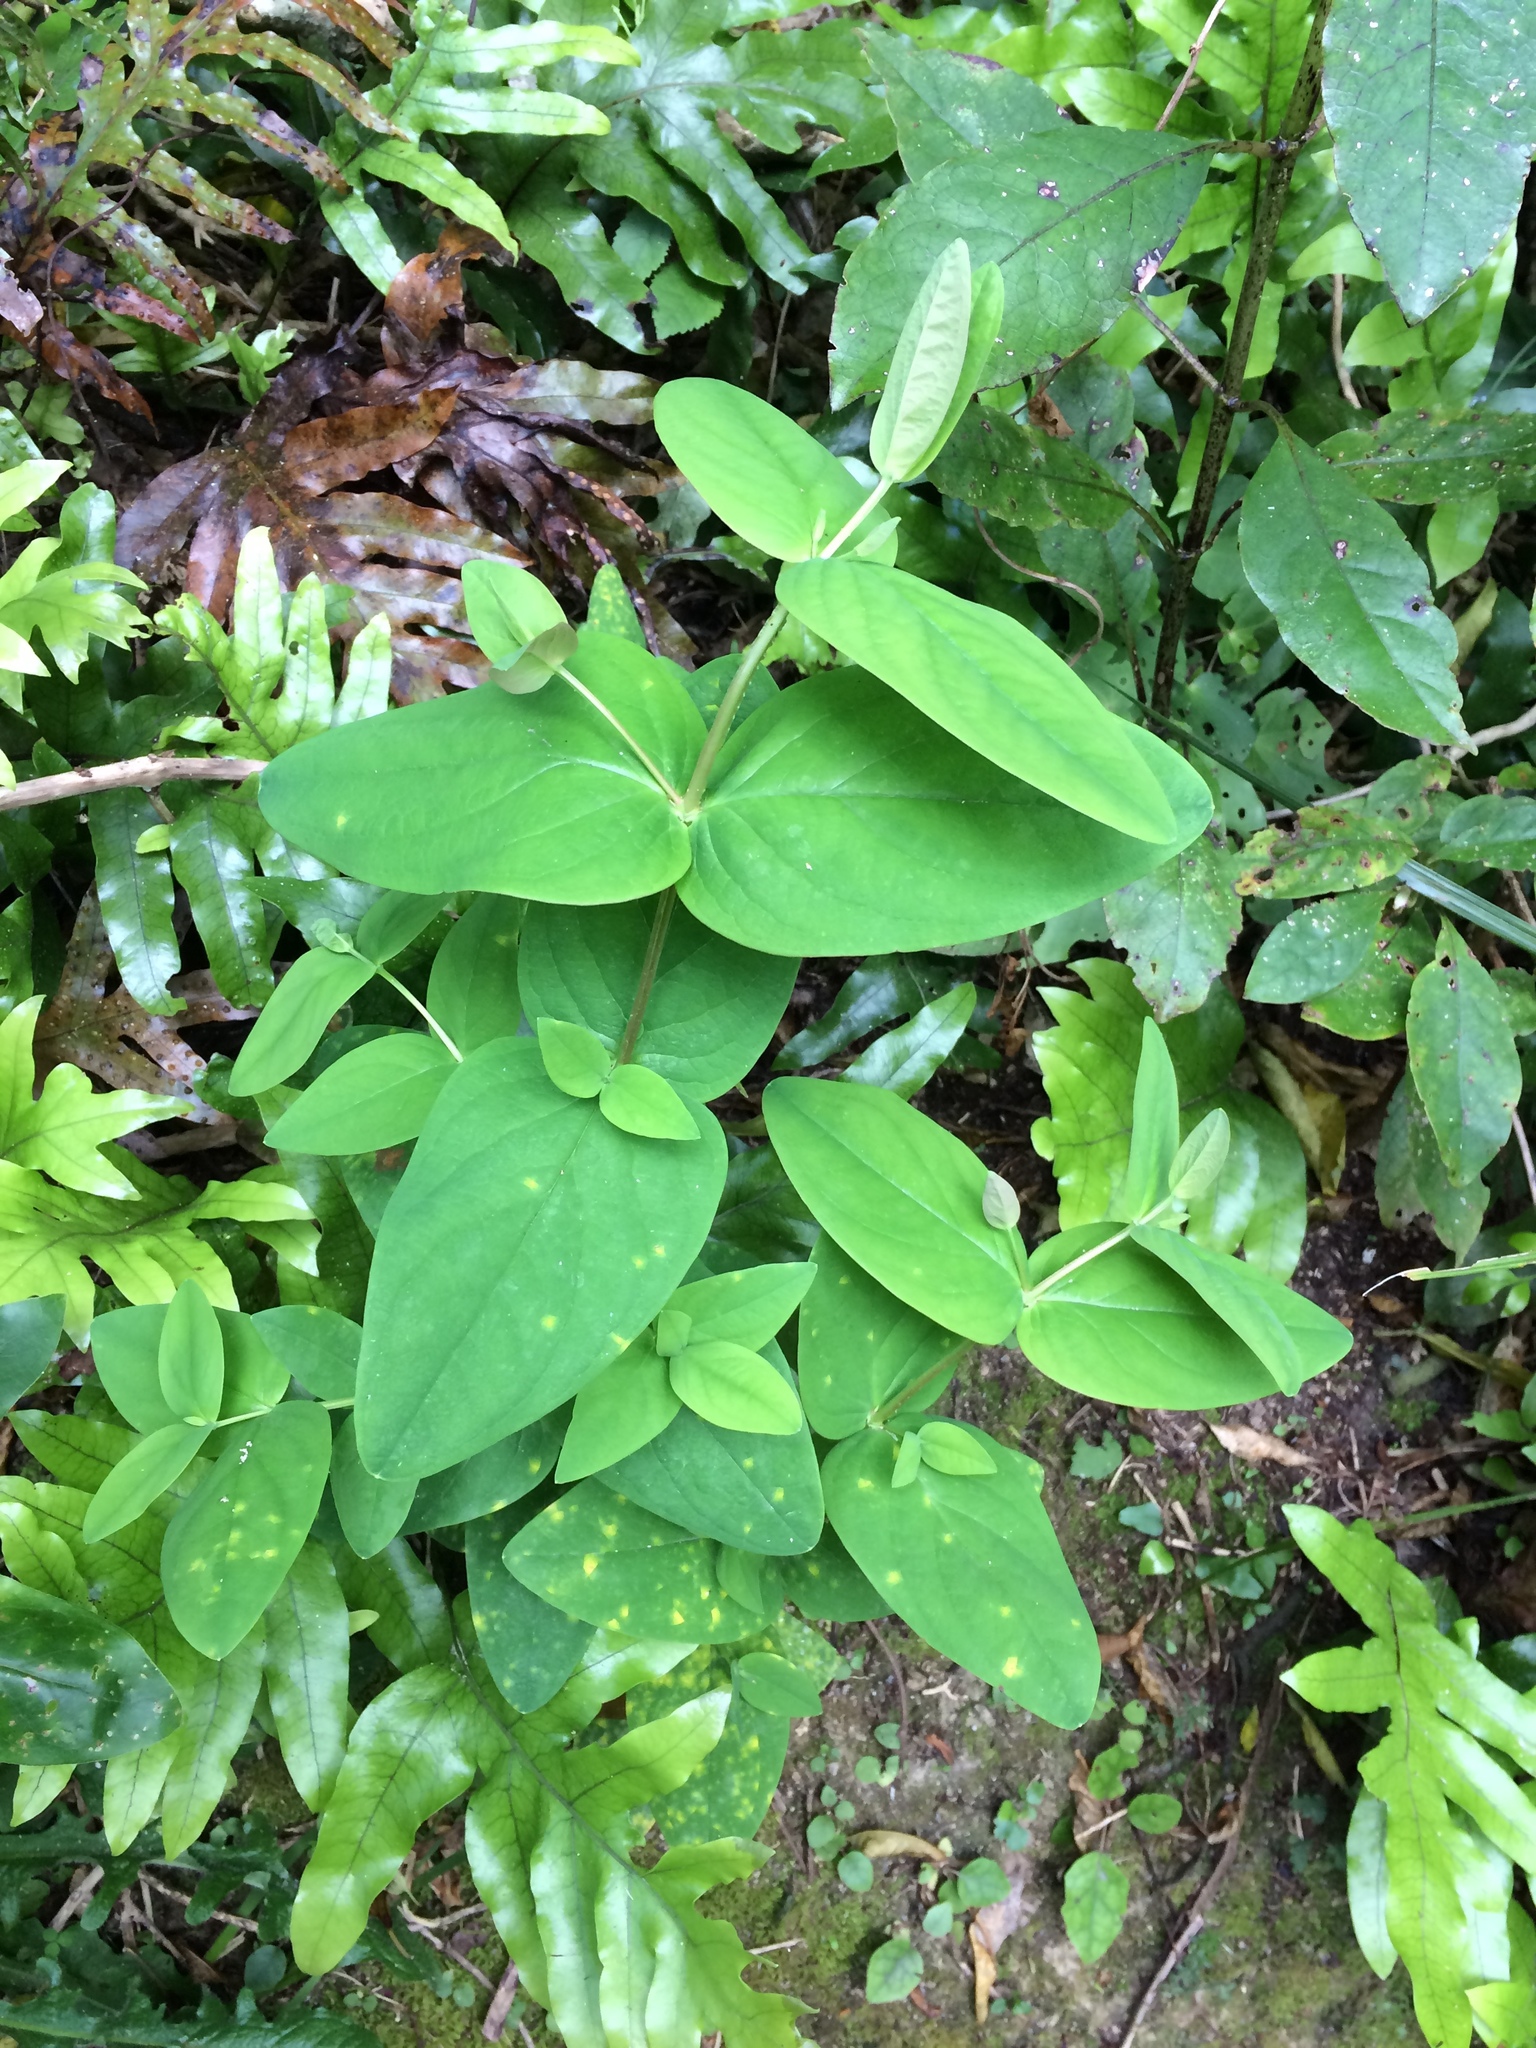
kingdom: Plantae
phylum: Tracheophyta
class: Magnoliopsida
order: Malpighiales
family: Hypericaceae
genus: Hypericum
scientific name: Hypericum androsaemum
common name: Sweet-amber
